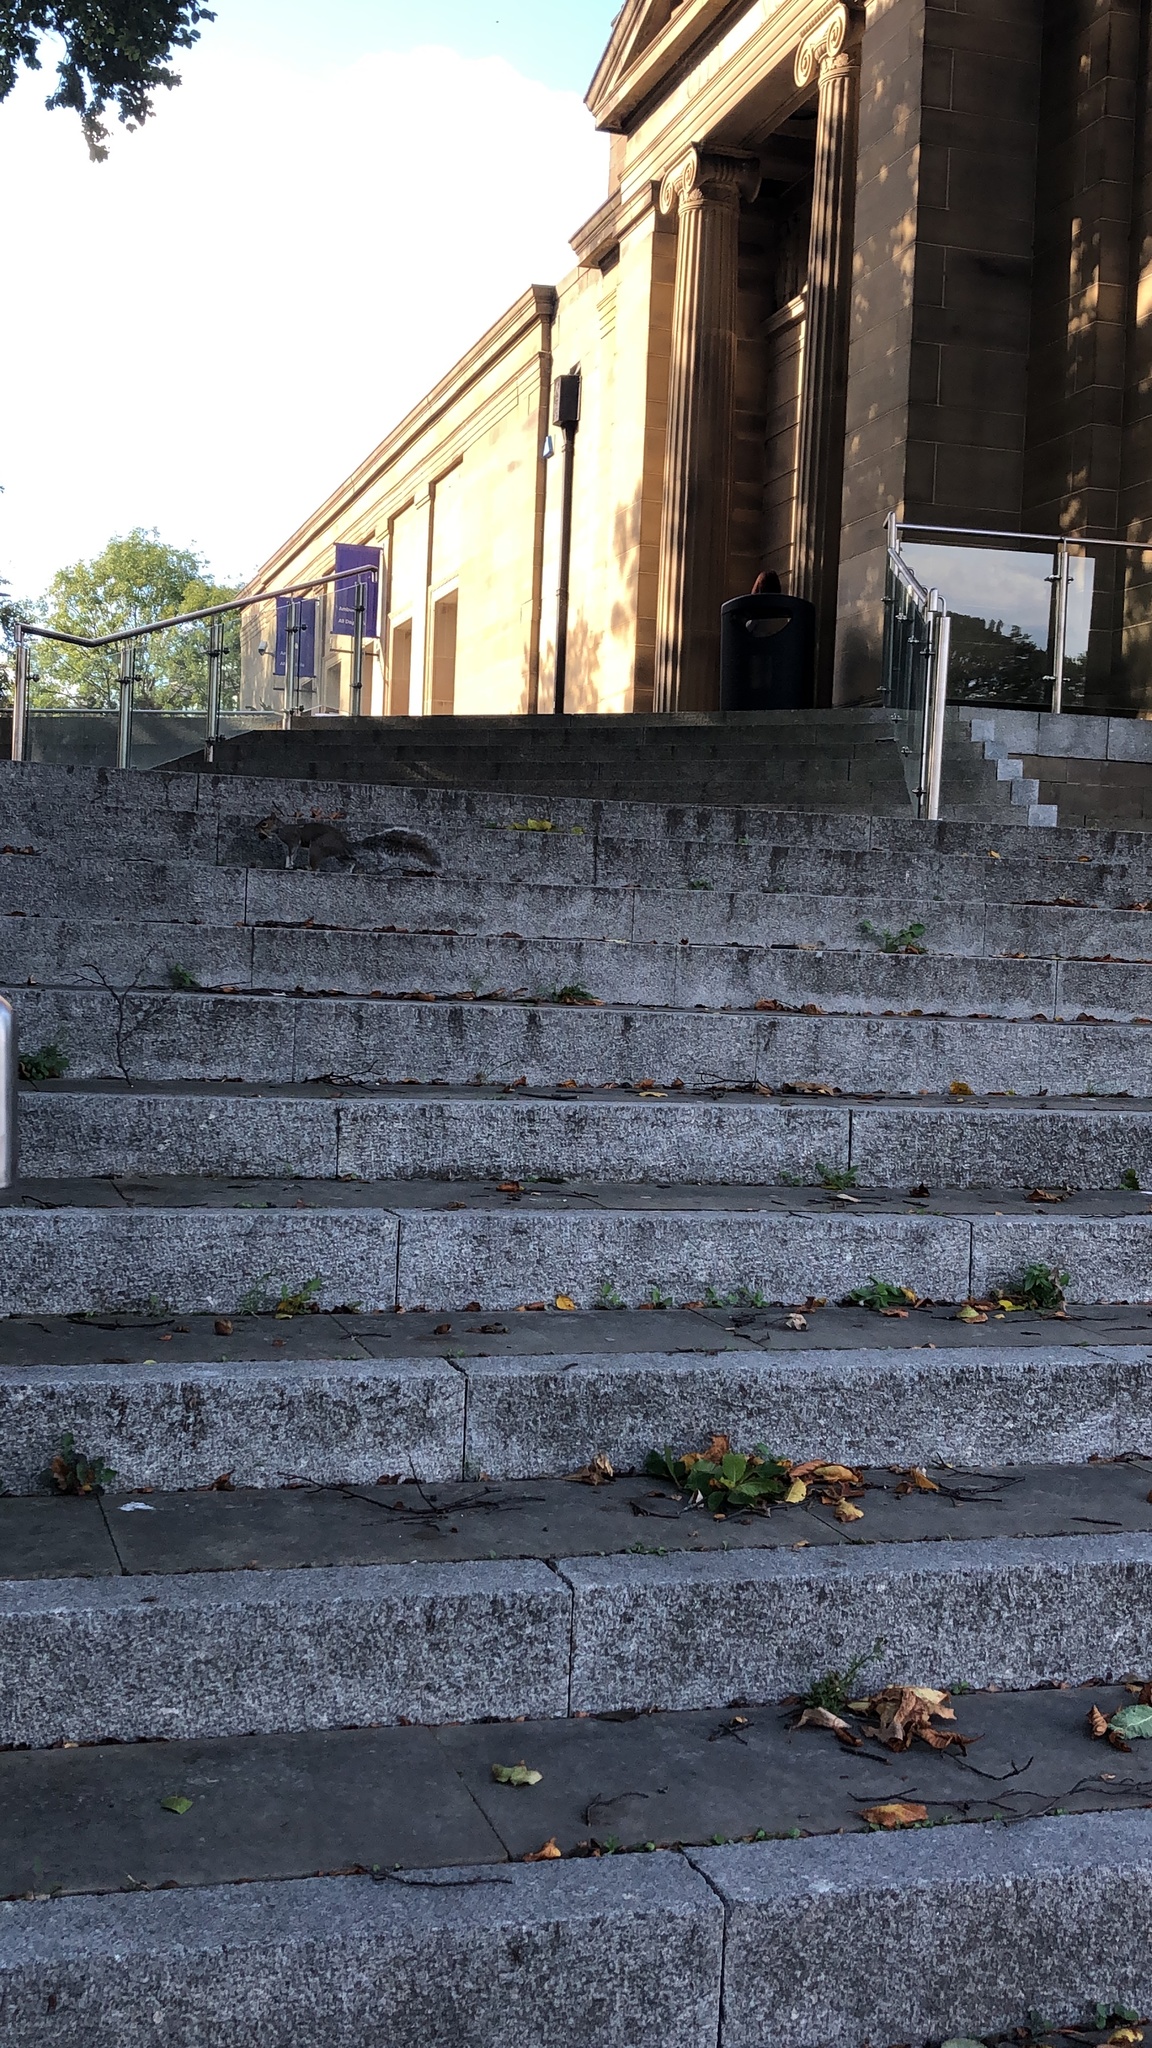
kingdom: Animalia
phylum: Chordata
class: Mammalia
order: Rodentia
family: Sciuridae
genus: Sciurus
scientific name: Sciurus carolinensis
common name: Eastern gray squirrel
